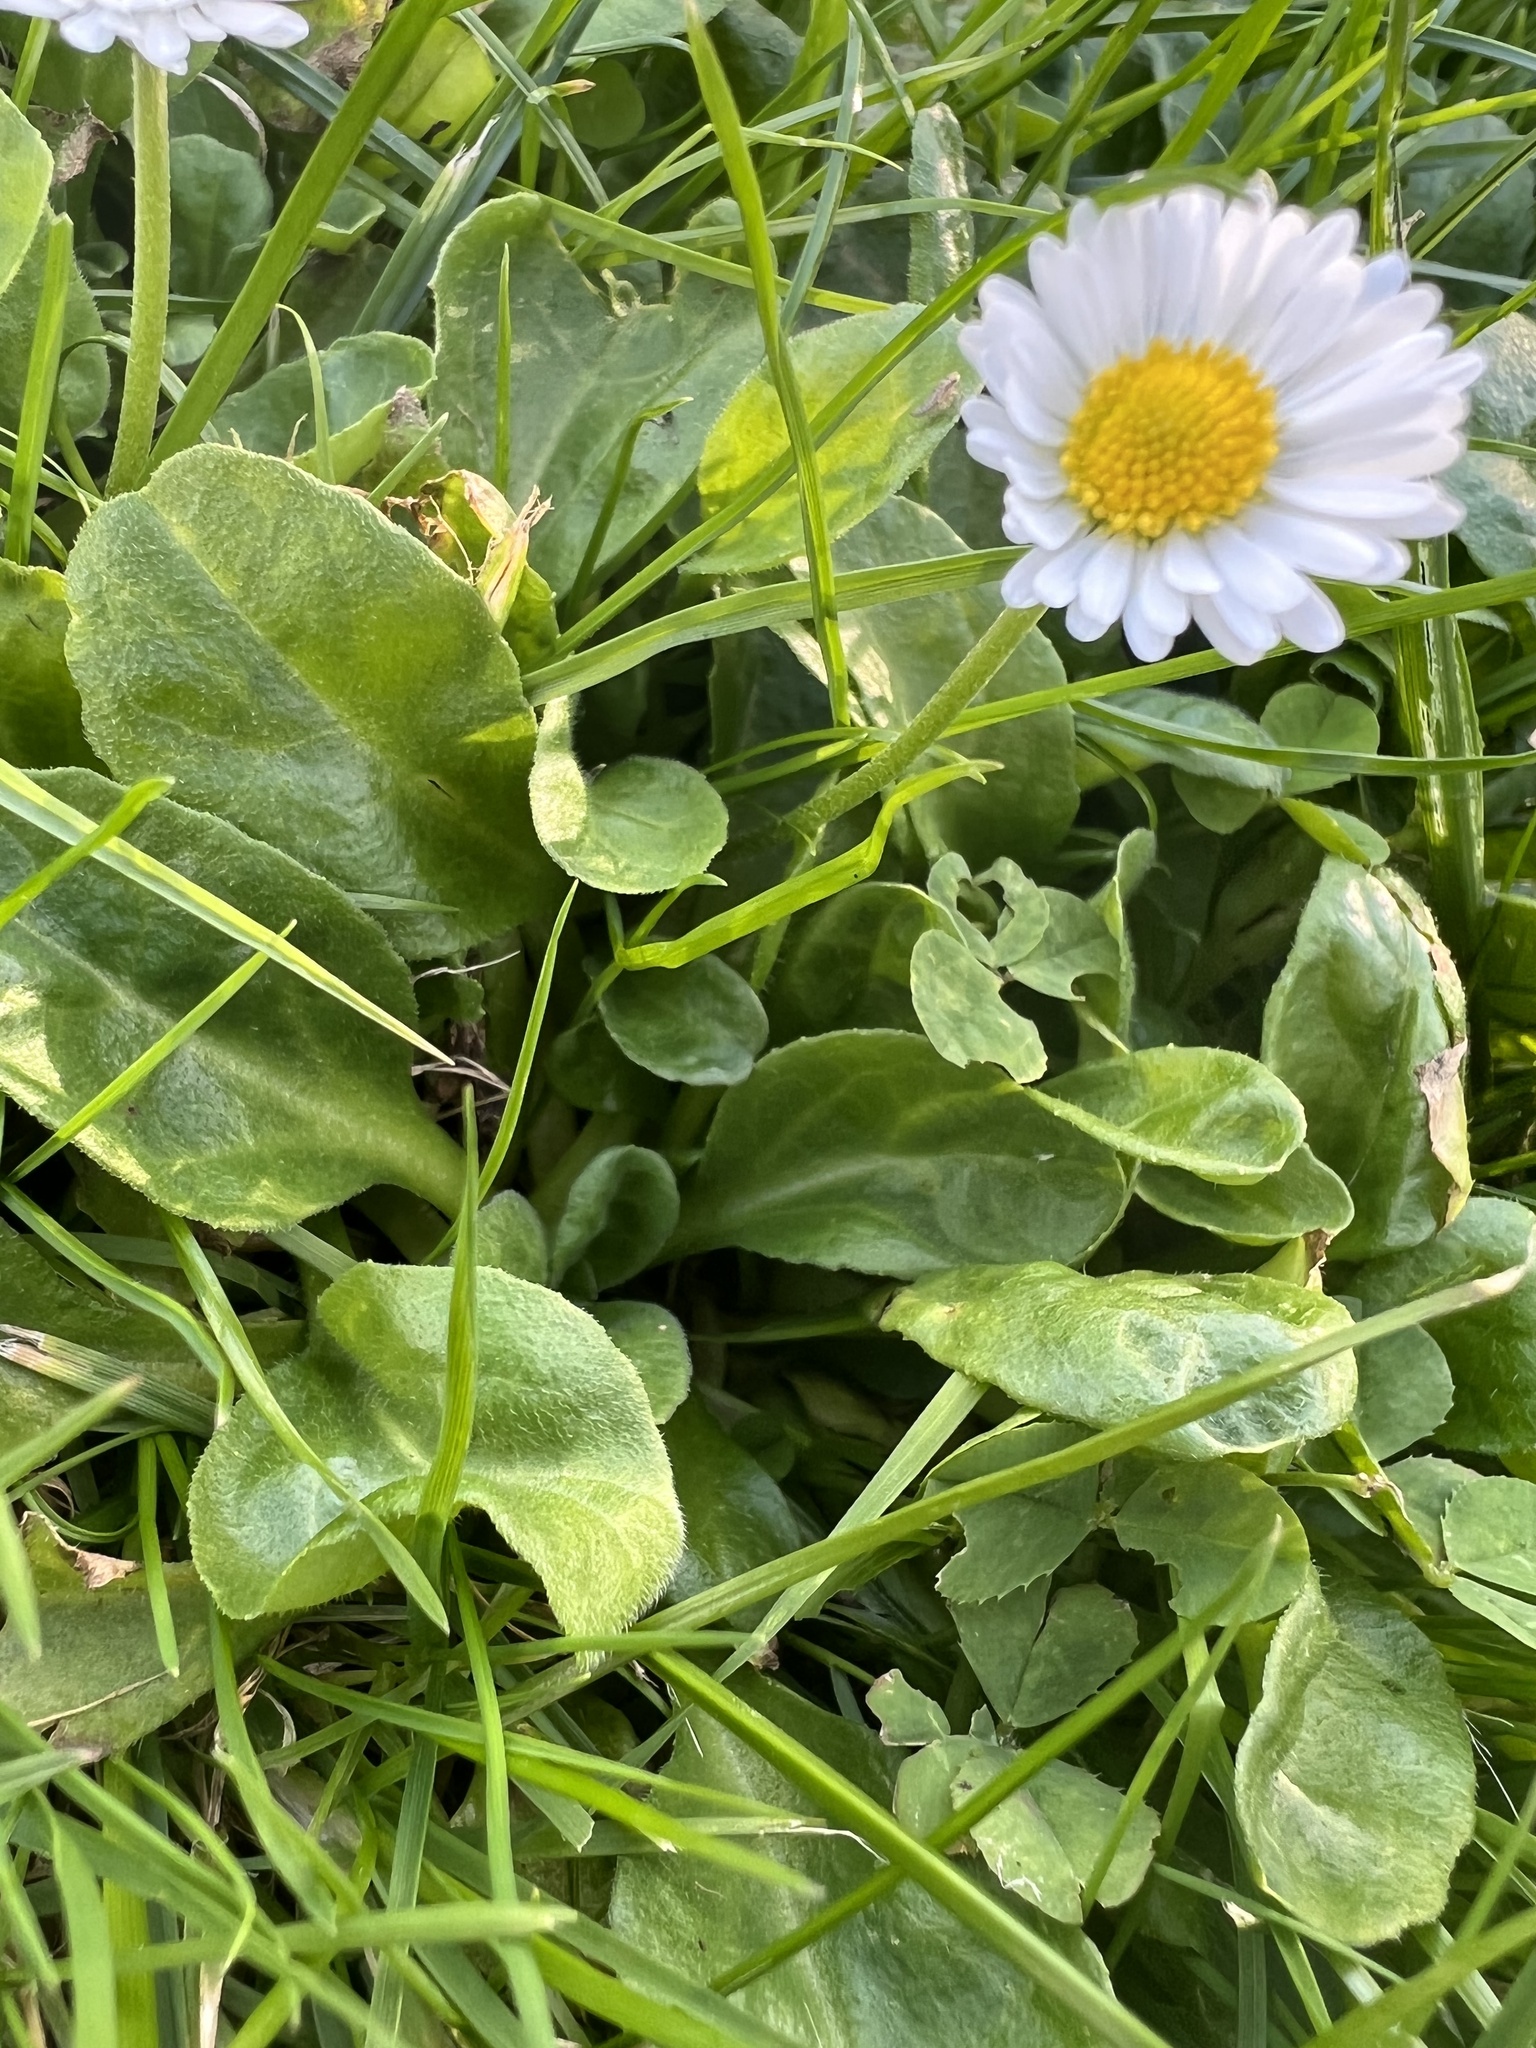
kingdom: Plantae
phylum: Tracheophyta
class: Magnoliopsida
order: Asterales
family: Asteraceae
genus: Bellis
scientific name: Bellis perennis
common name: Lawndaisy
